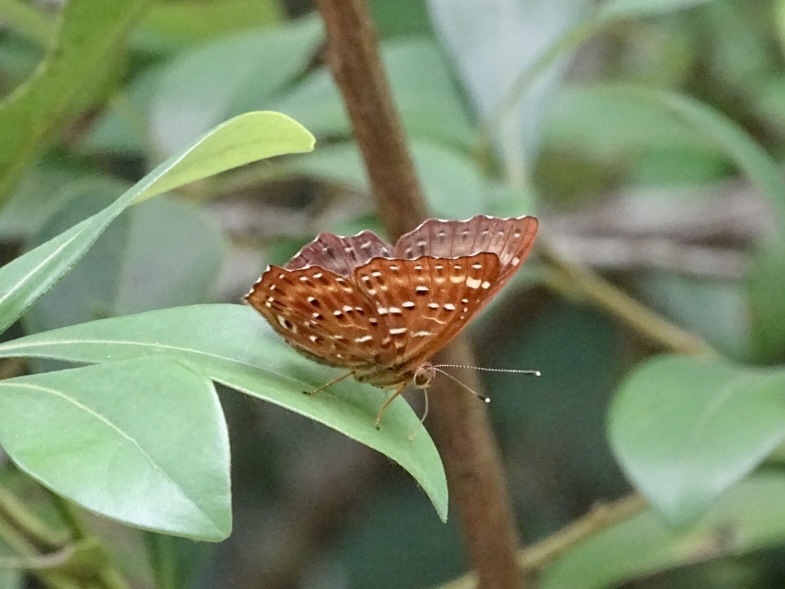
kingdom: Animalia
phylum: Arthropoda
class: Insecta
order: Lepidoptera
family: Riodinidae
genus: Zemeros
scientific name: Zemeros flegyas
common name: Punchinello
